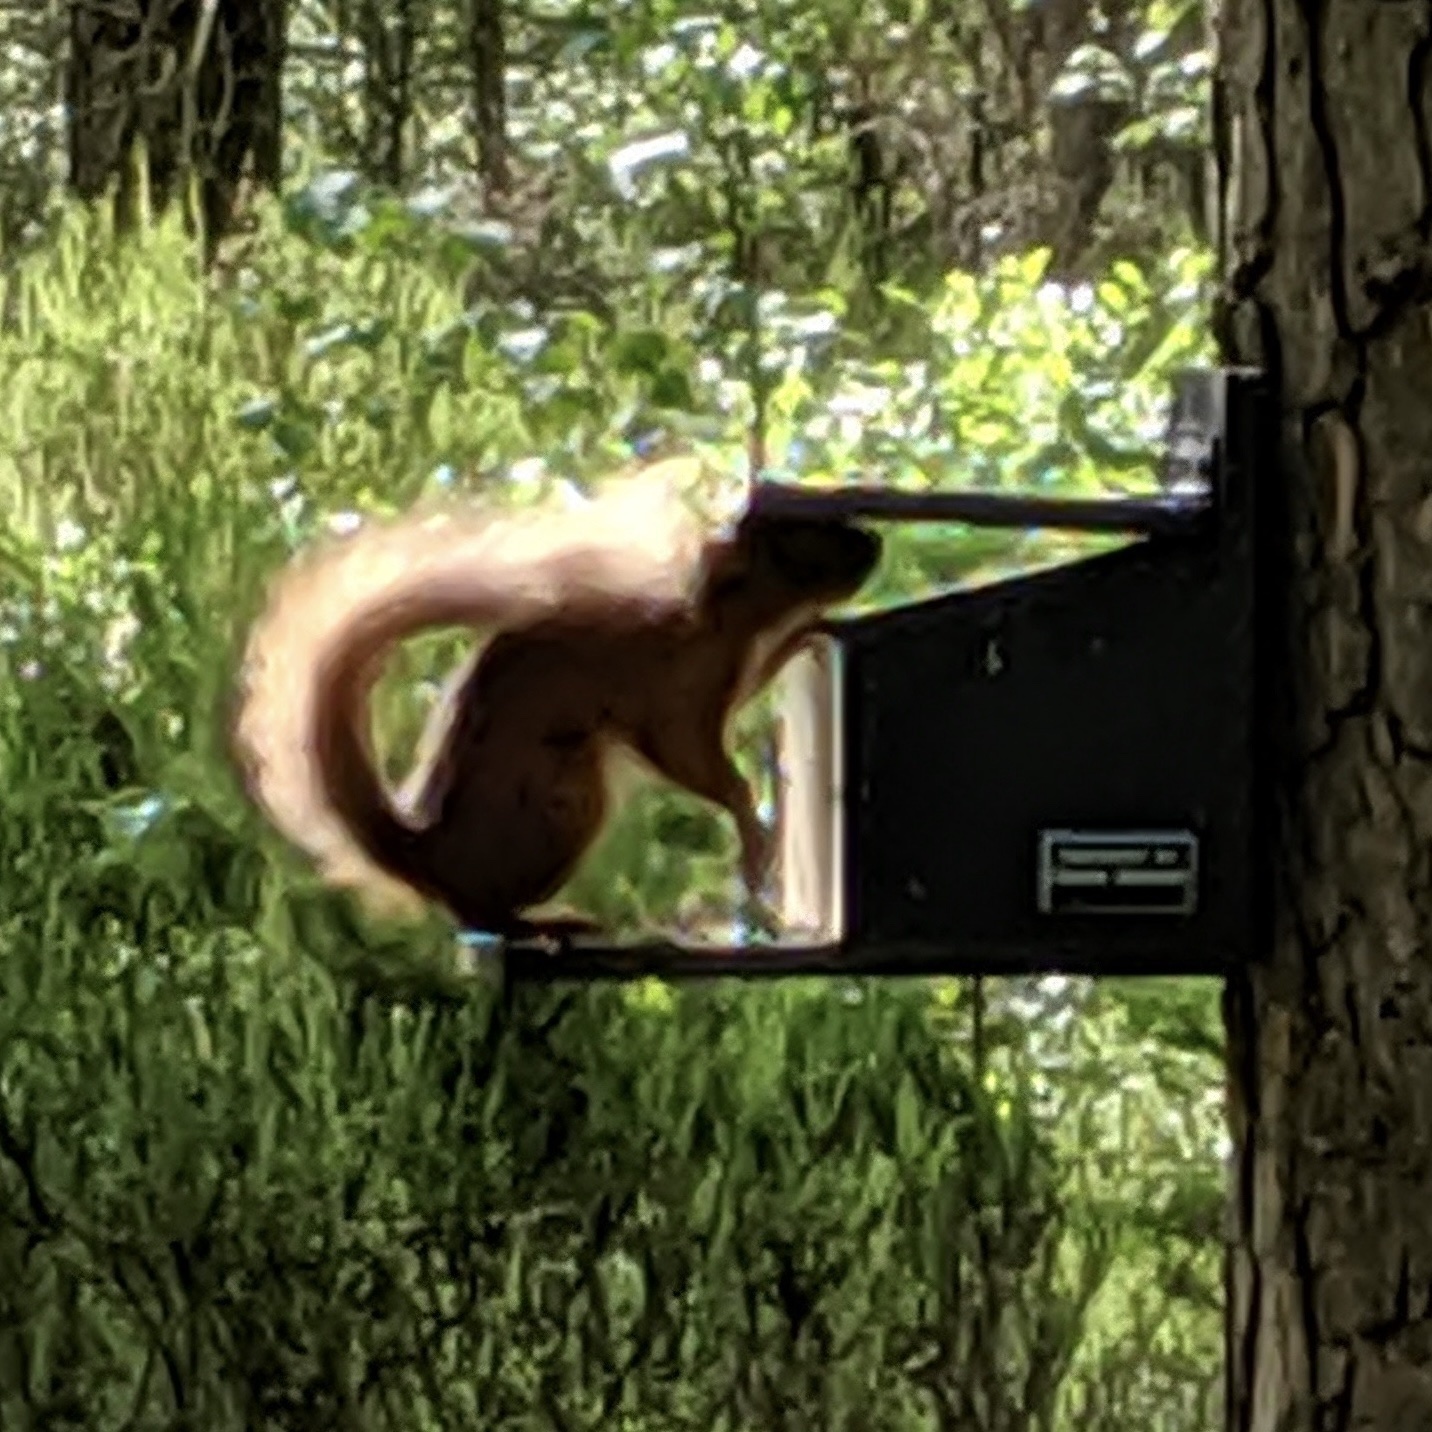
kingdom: Animalia
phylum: Chordata
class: Mammalia
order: Rodentia
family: Sciuridae
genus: Sciurus
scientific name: Sciurus vulgaris
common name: Eurasian red squirrel
